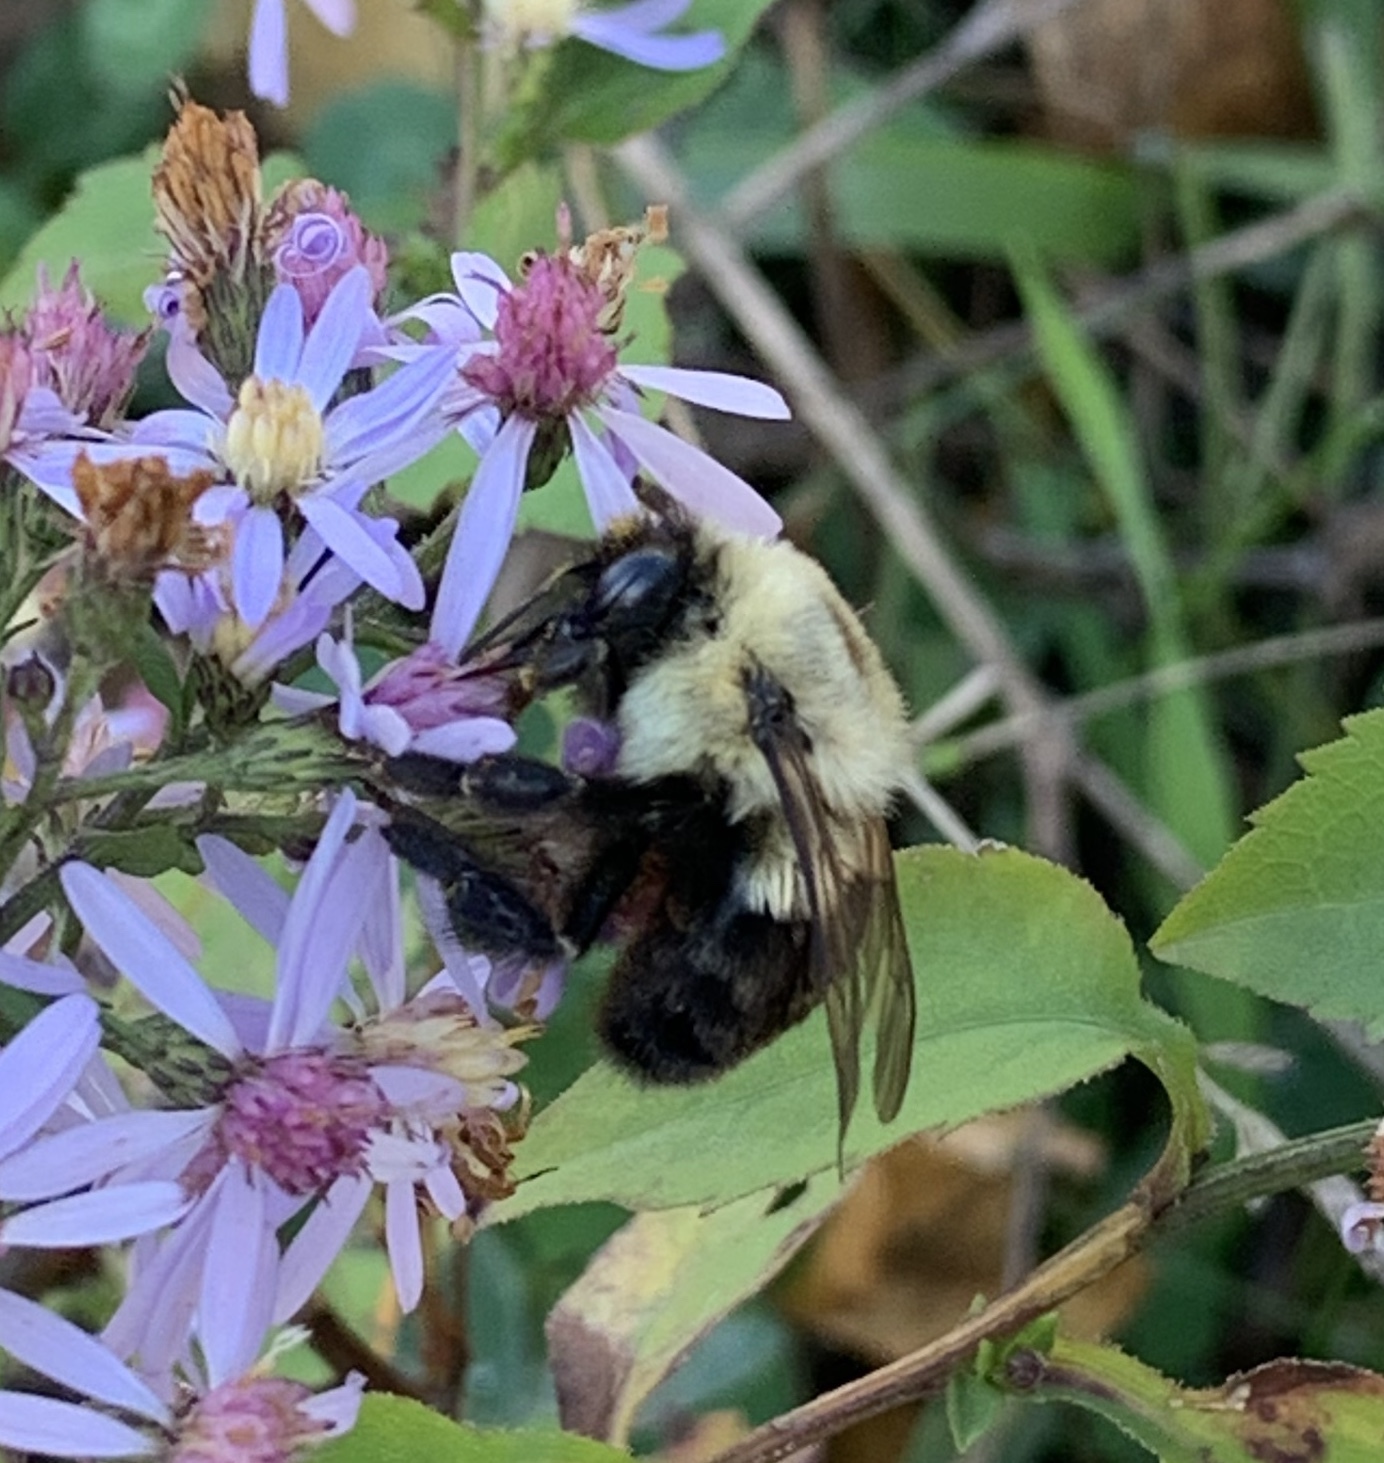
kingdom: Animalia
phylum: Arthropoda
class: Insecta
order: Hymenoptera
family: Apidae
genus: Bombus
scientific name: Bombus impatiens
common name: Common eastern bumble bee
